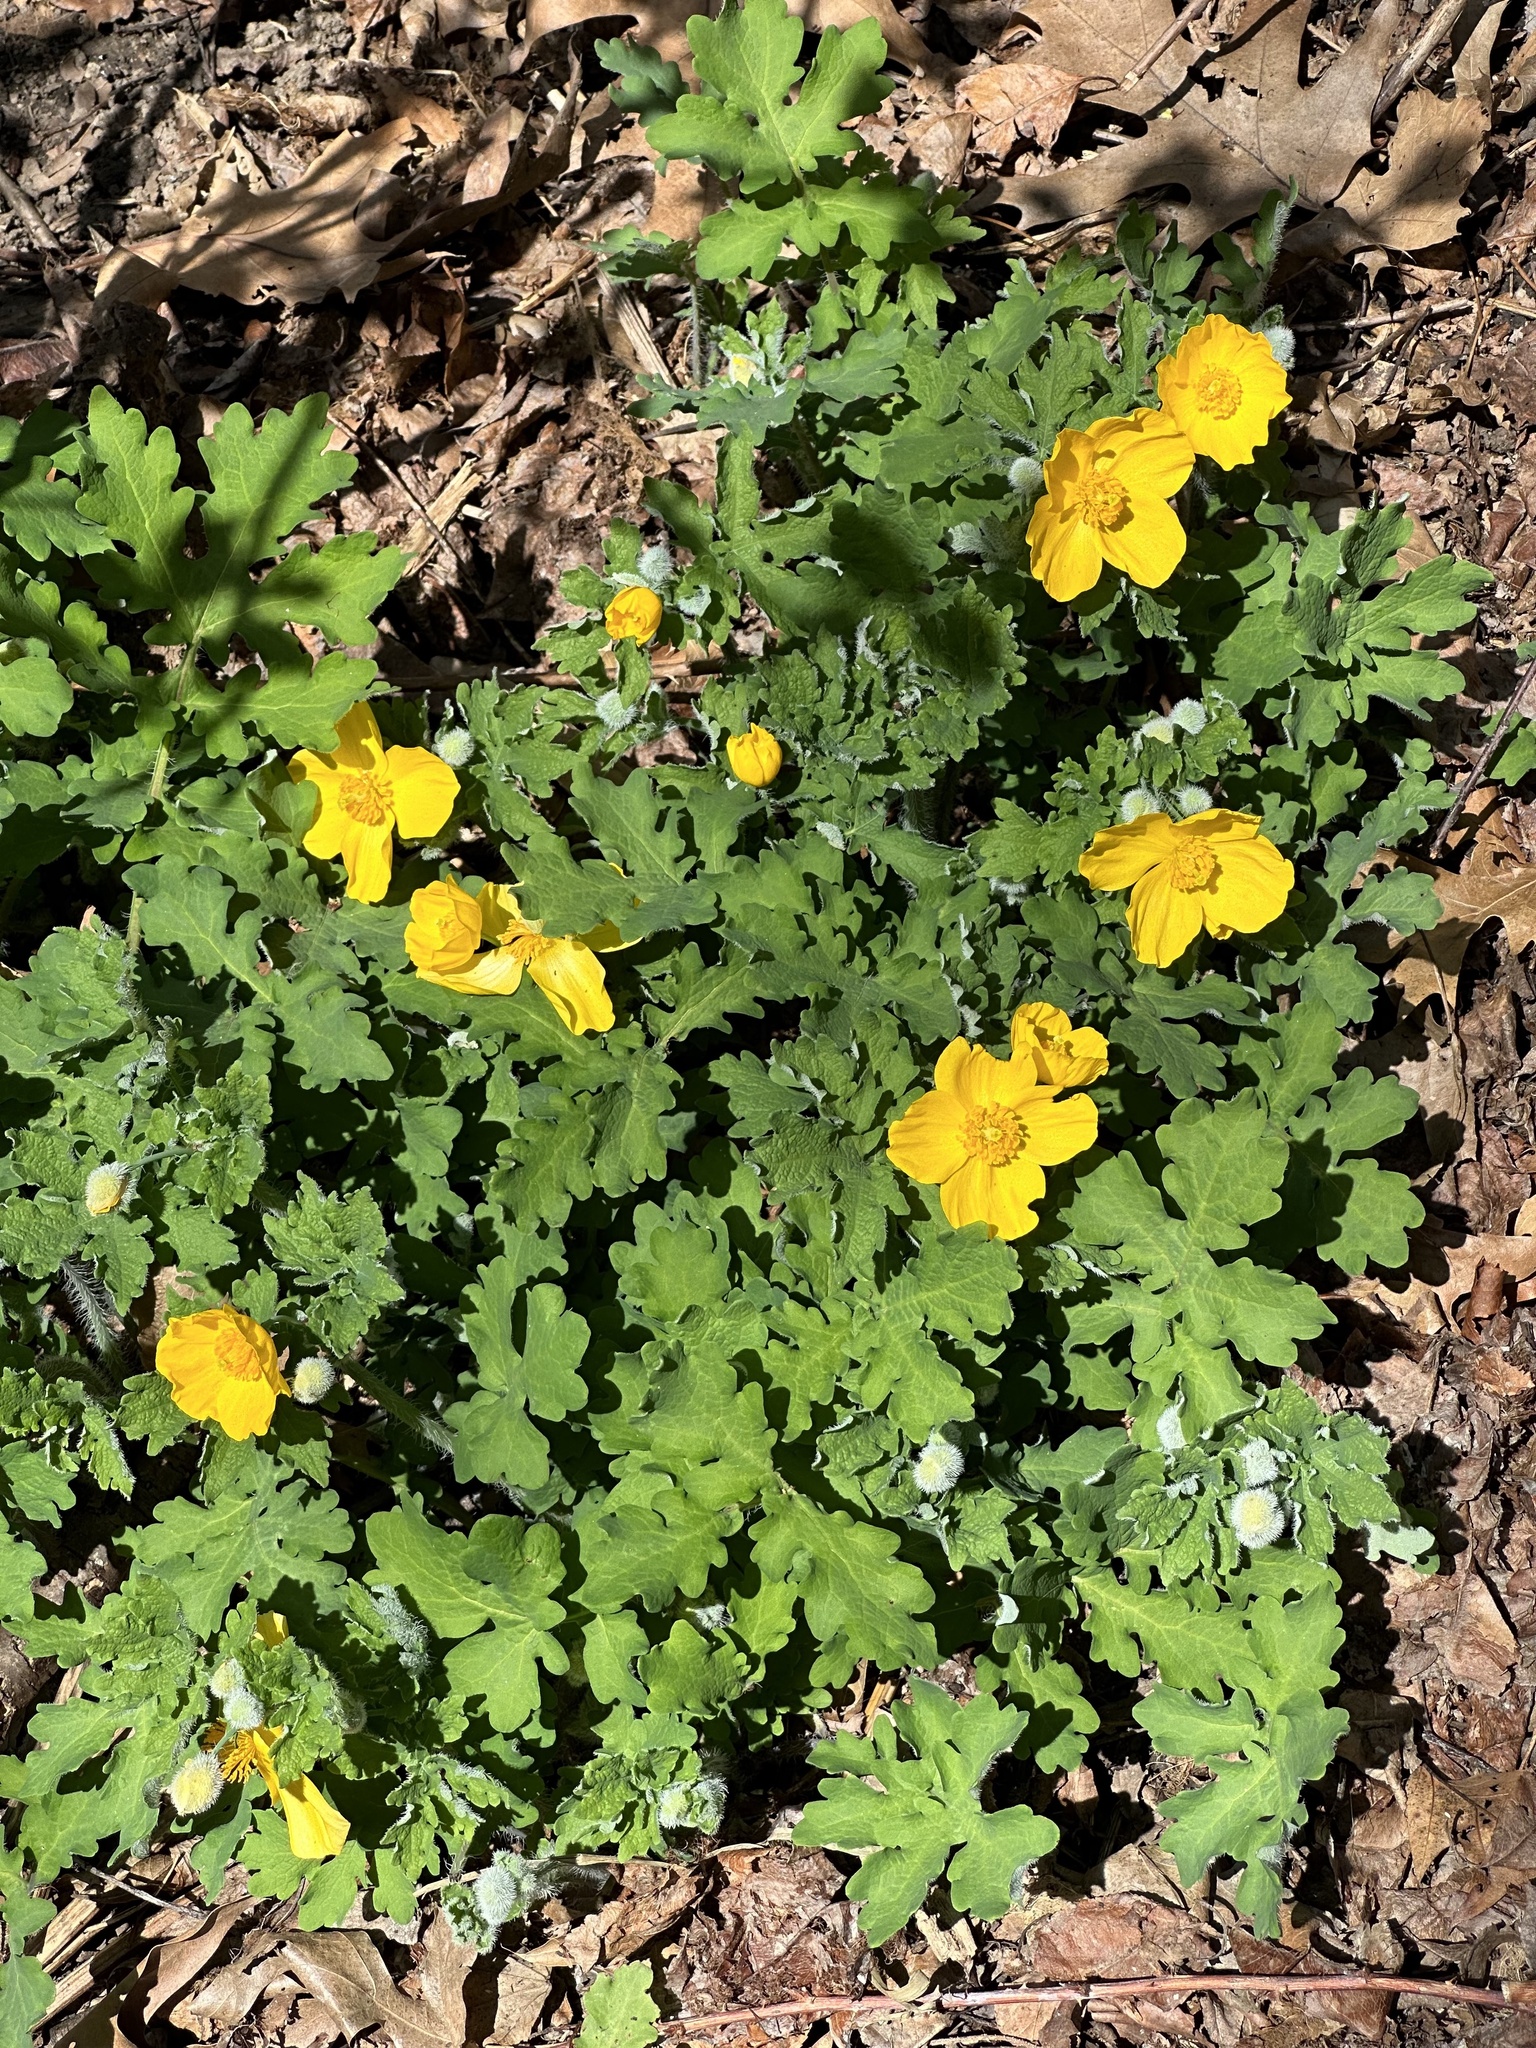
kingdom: Plantae
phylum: Tracheophyta
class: Magnoliopsida
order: Ranunculales
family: Papaveraceae
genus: Stylophorum
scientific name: Stylophorum diphyllum
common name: Celandine poppy
